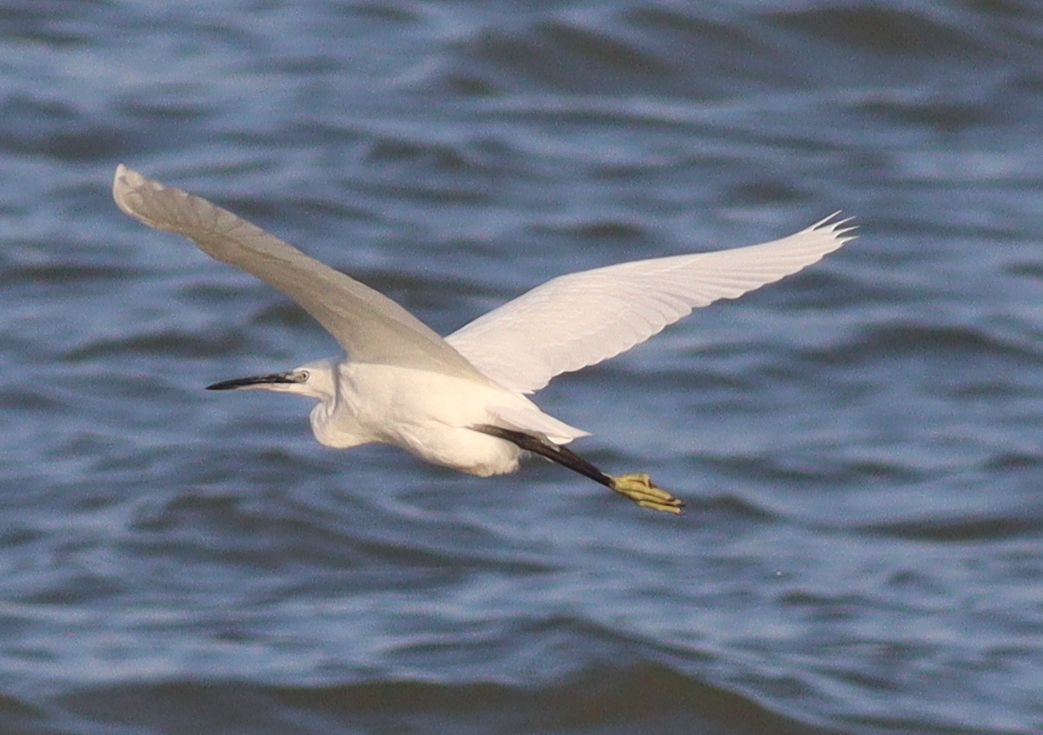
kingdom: Animalia
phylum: Chordata
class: Aves
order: Pelecaniformes
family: Ardeidae
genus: Egretta
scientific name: Egretta garzetta
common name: Little egret
